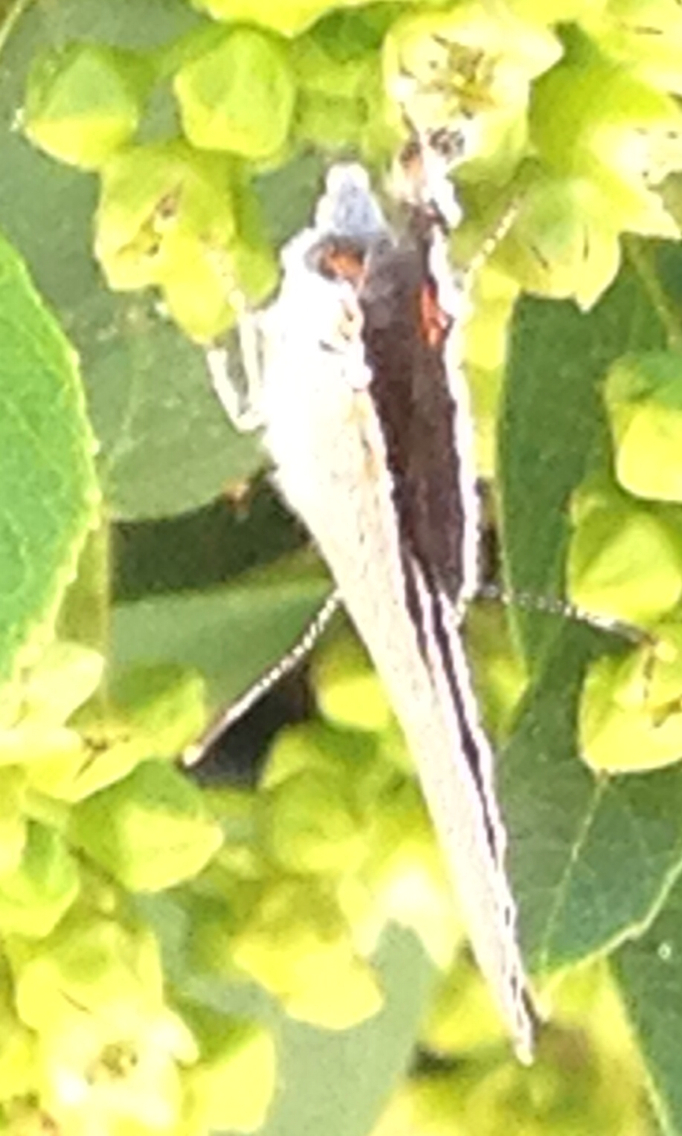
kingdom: Animalia
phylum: Arthropoda
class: Insecta
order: Lepidoptera
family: Lycaenidae
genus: Strymon
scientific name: Strymon melinus
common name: Gray hairstreak
